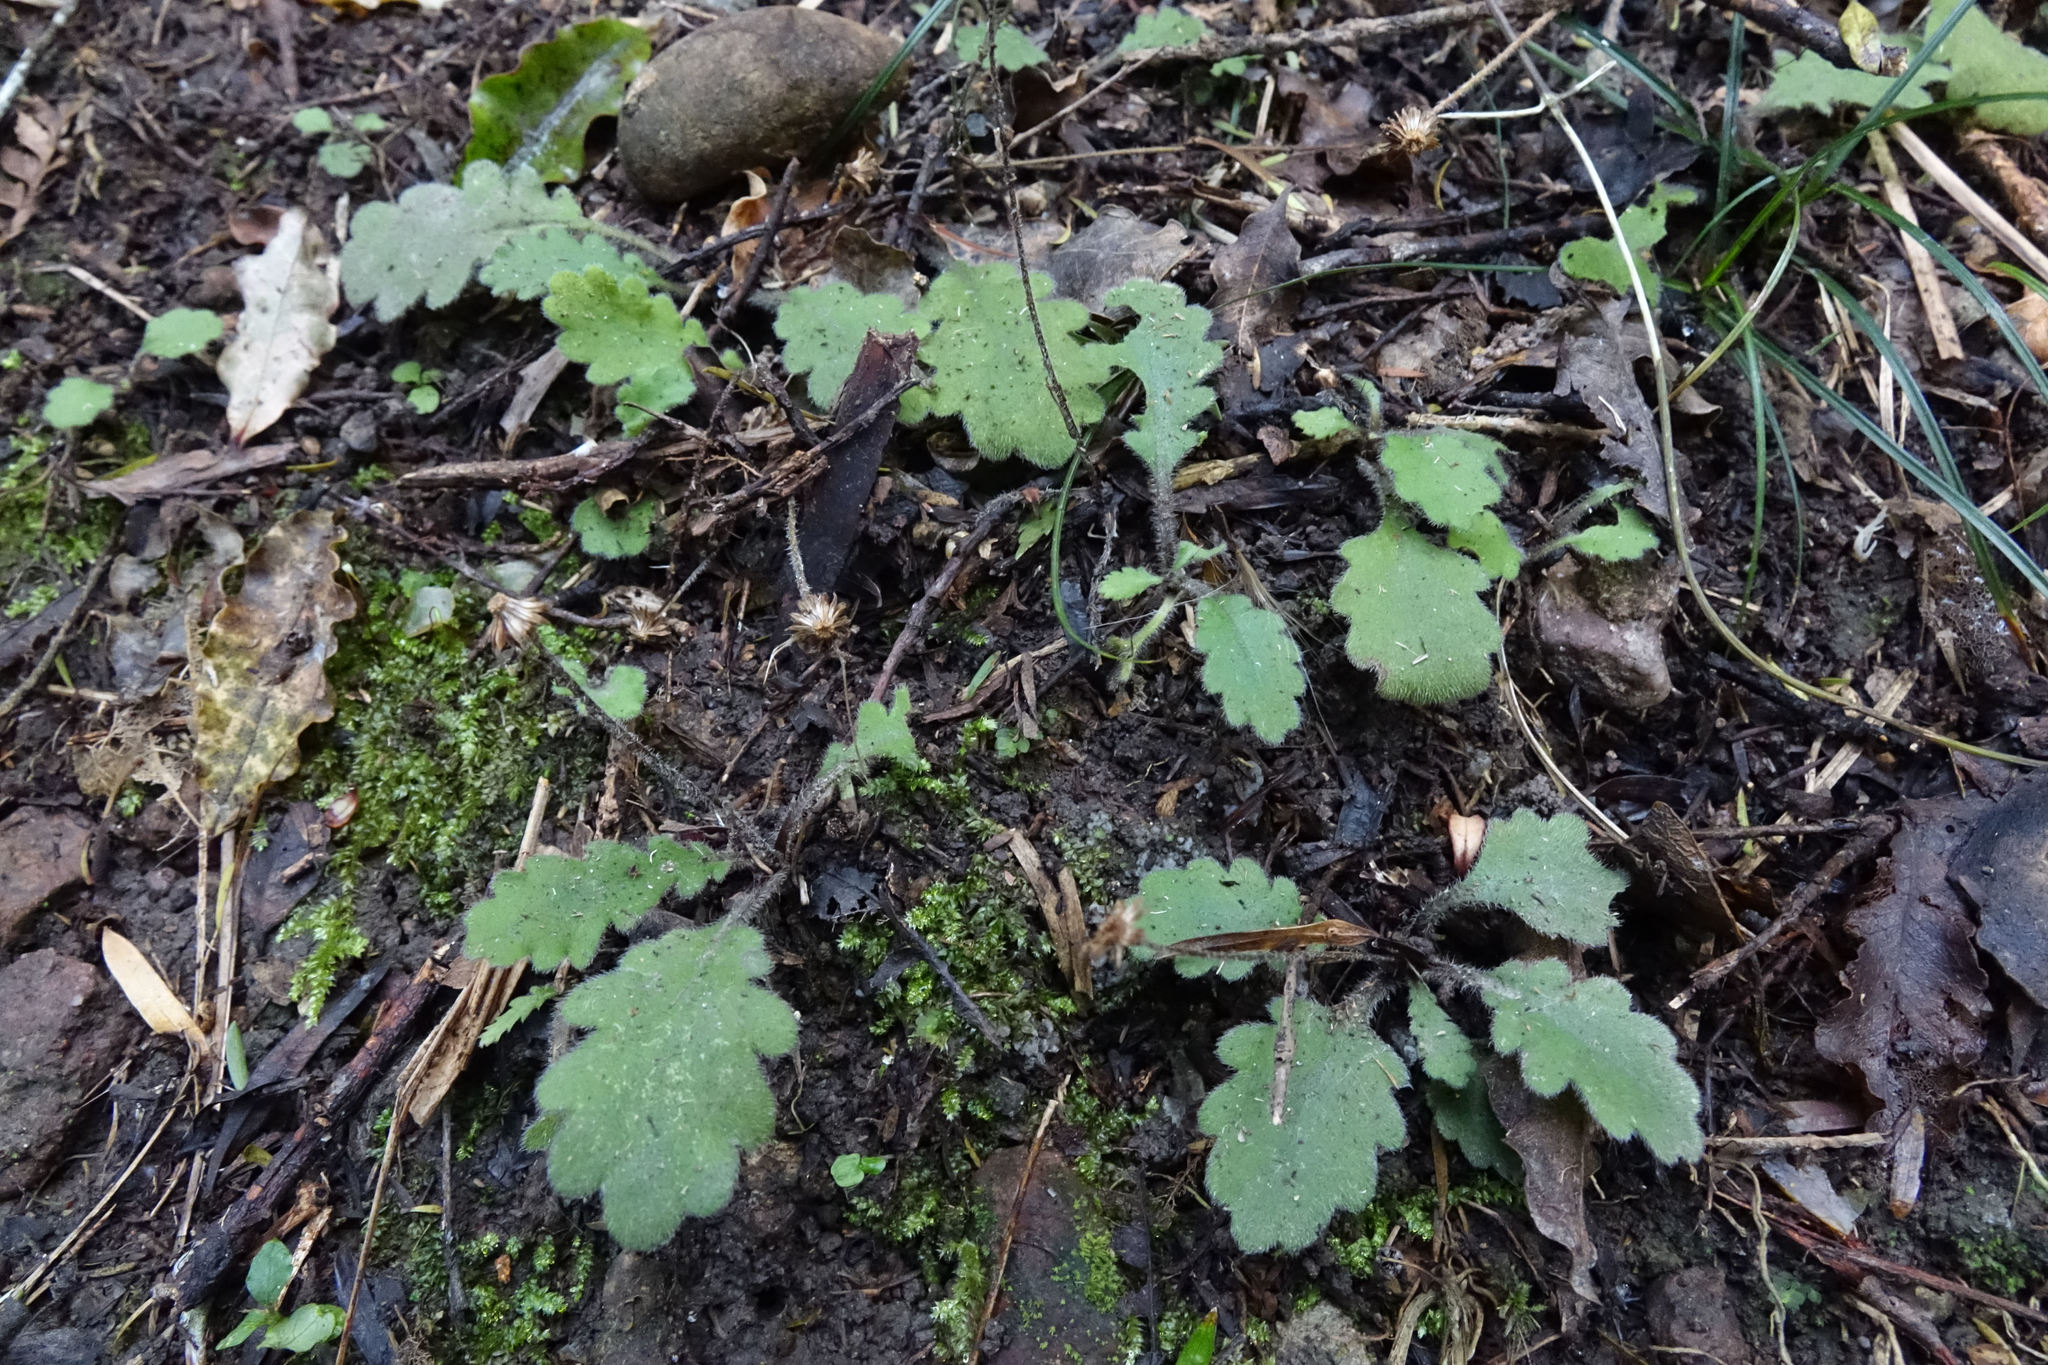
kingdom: Plantae
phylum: Tracheophyta
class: Magnoliopsida
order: Asterales
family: Asteraceae
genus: Lagenophora
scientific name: Lagenophora pinnatifida
